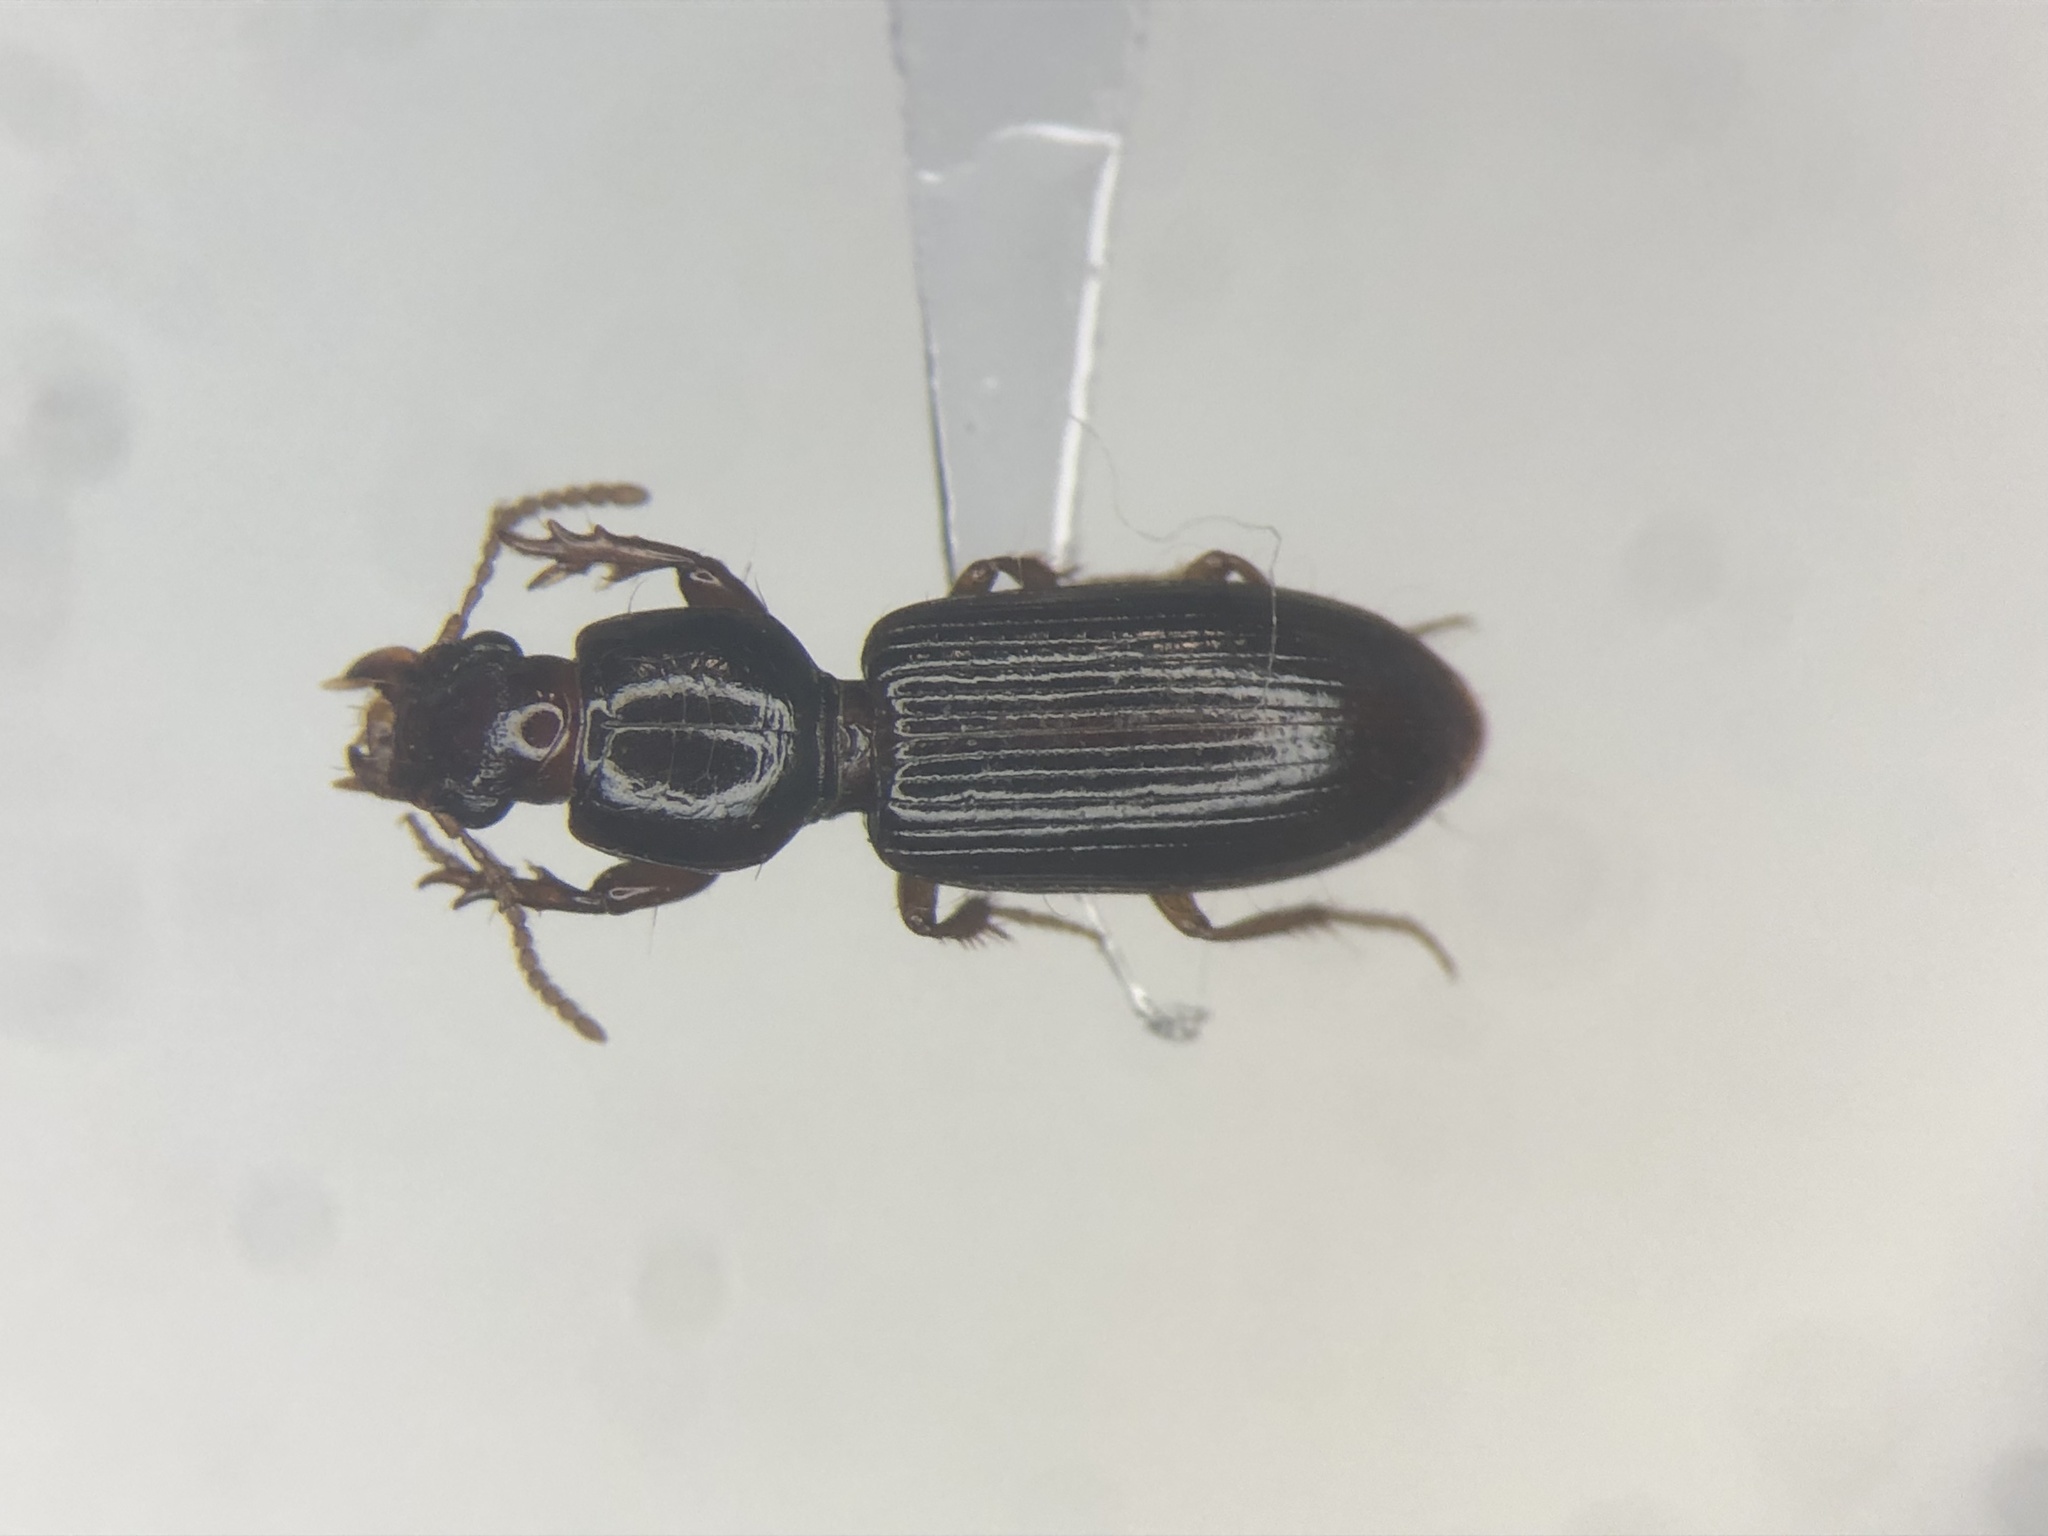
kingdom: Animalia
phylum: Arthropoda
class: Insecta
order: Coleoptera
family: Carabidae
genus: Clivina
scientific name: Clivina fossor
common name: Digging pedunculate ground beetle
